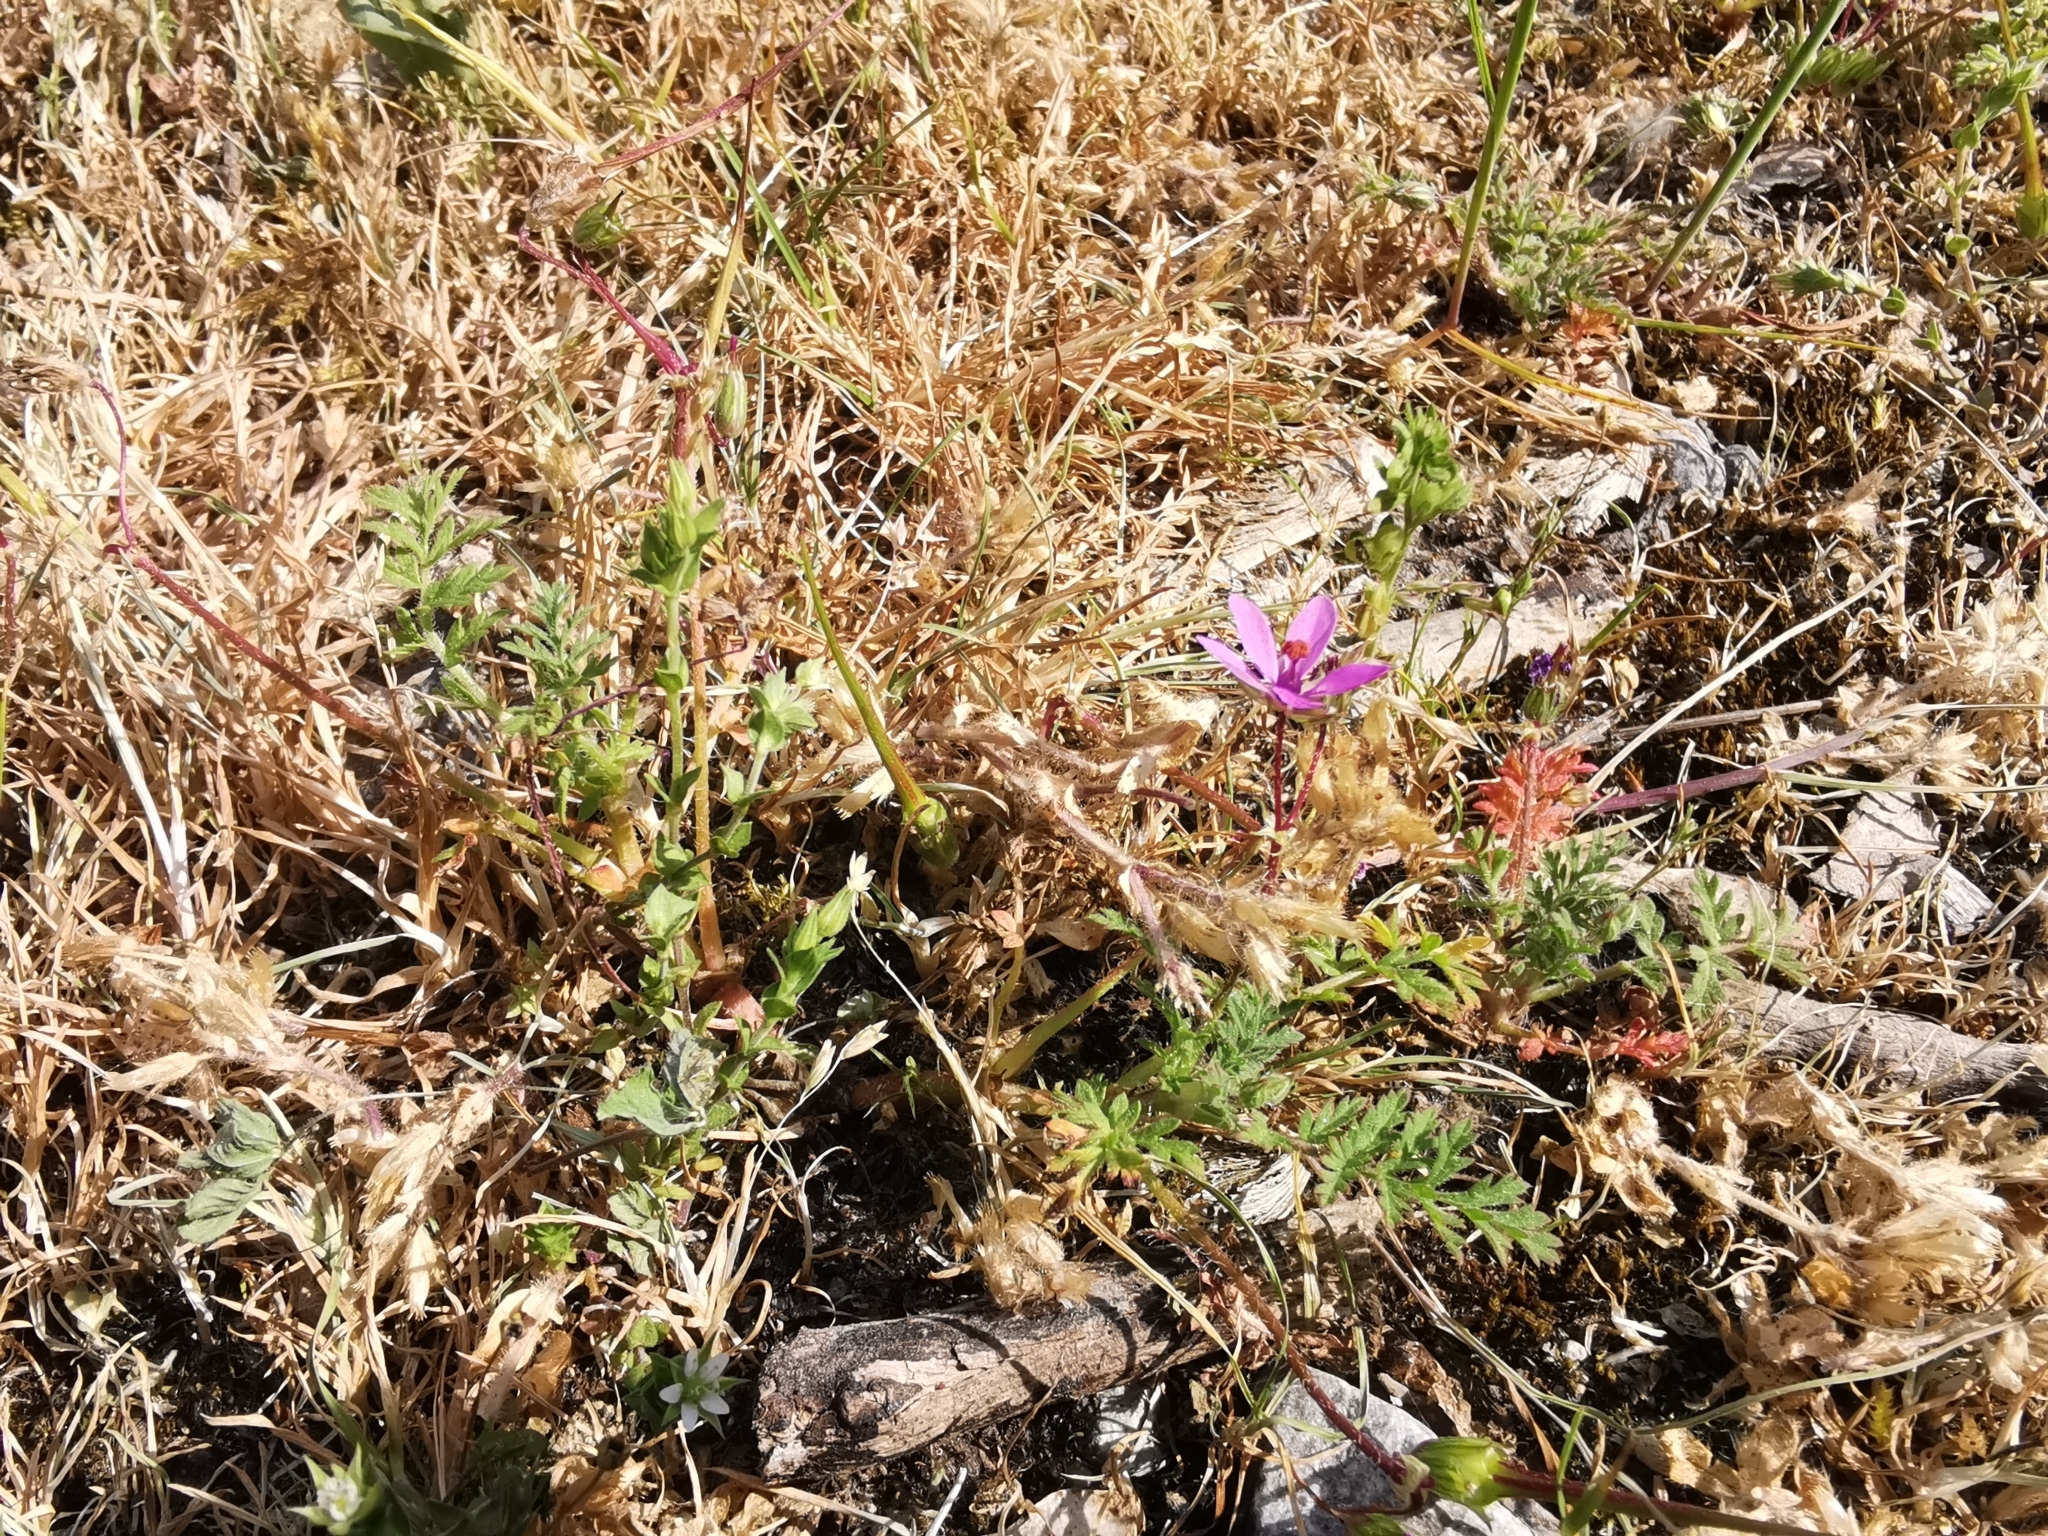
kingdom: Plantae
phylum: Tracheophyta
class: Magnoliopsida
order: Geraniales
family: Geraniaceae
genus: Erodium
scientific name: Erodium cicutarium
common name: Common stork's-bill
